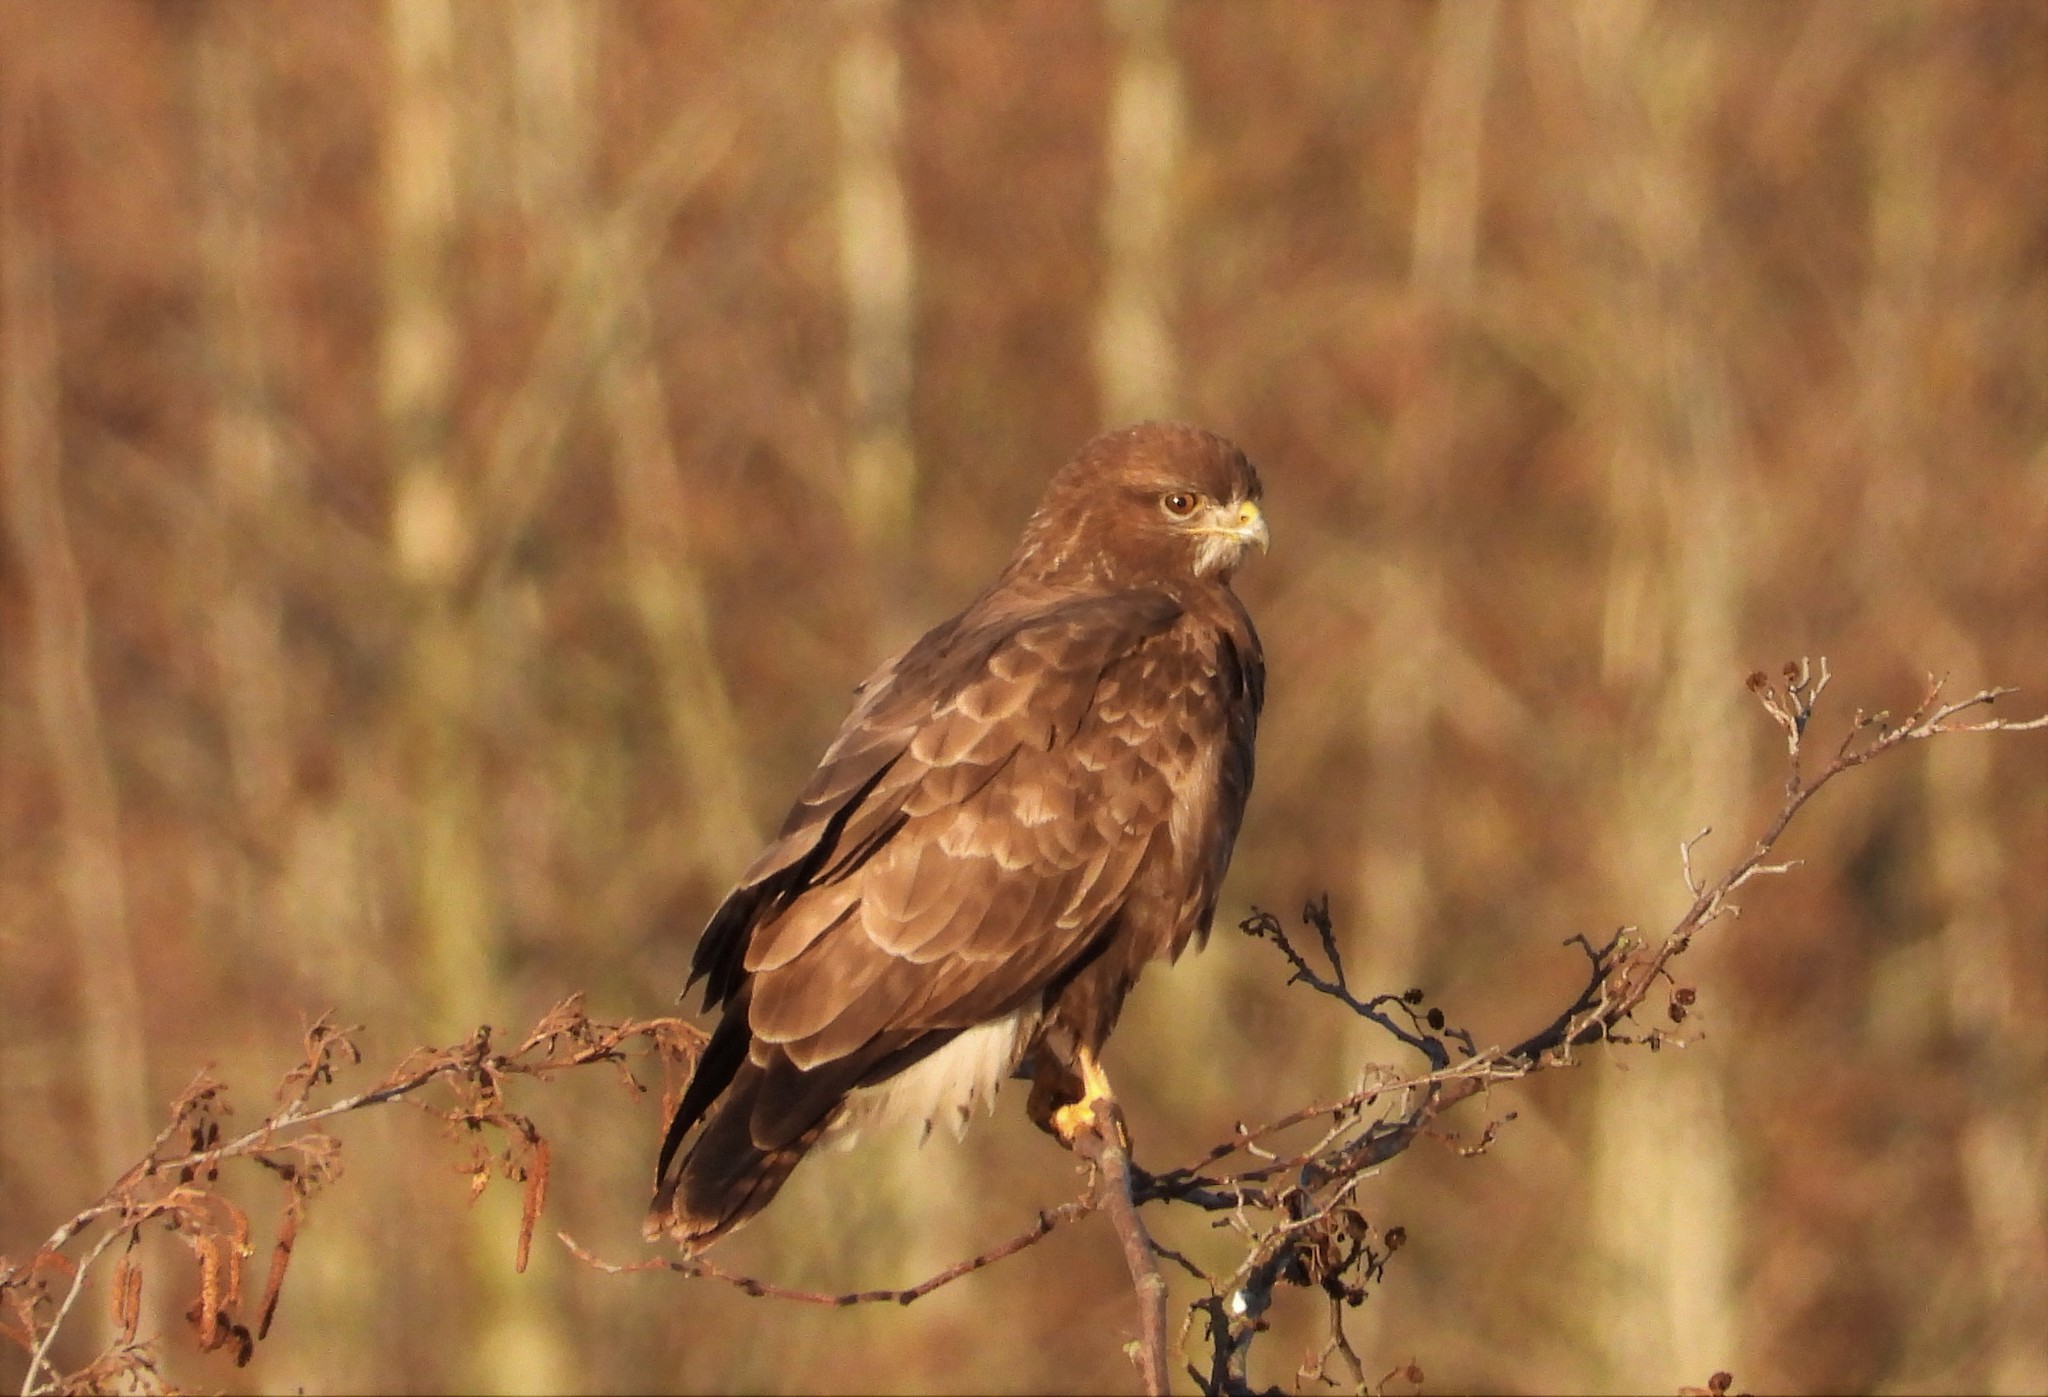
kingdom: Animalia
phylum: Chordata
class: Aves
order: Accipitriformes
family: Accipitridae
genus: Buteo
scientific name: Buteo buteo
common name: Common buzzard
